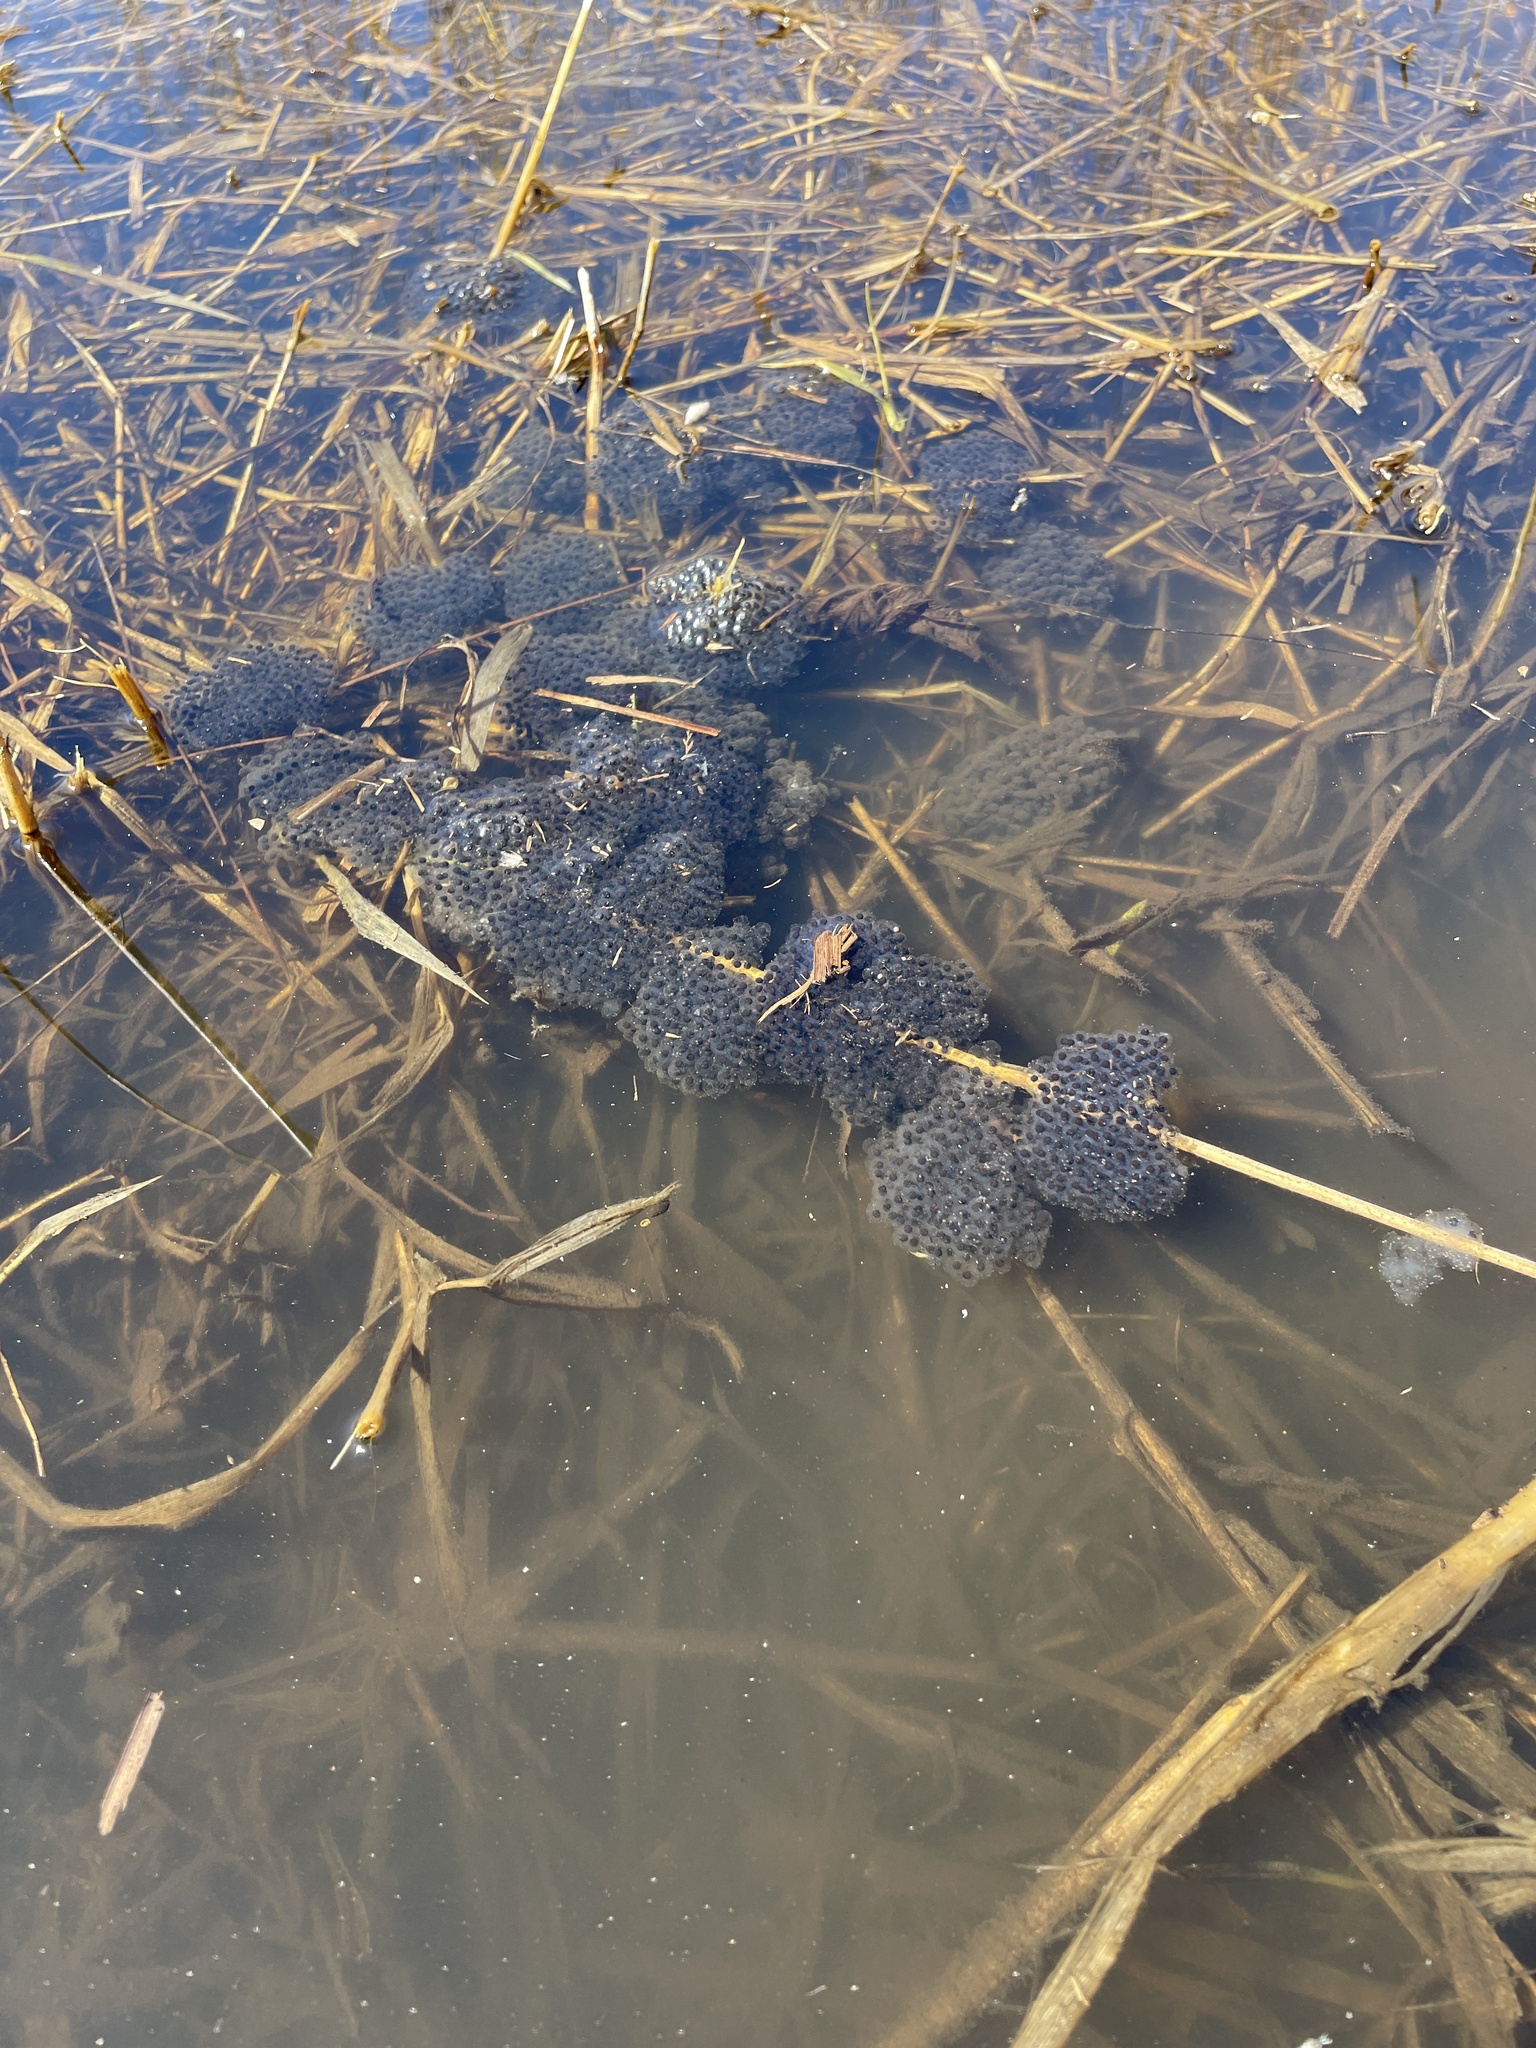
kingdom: Animalia
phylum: Chordata
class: Amphibia
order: Anura
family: Ranidae
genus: Lithobates
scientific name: Lithobates sylvaticus
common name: Wood frog
